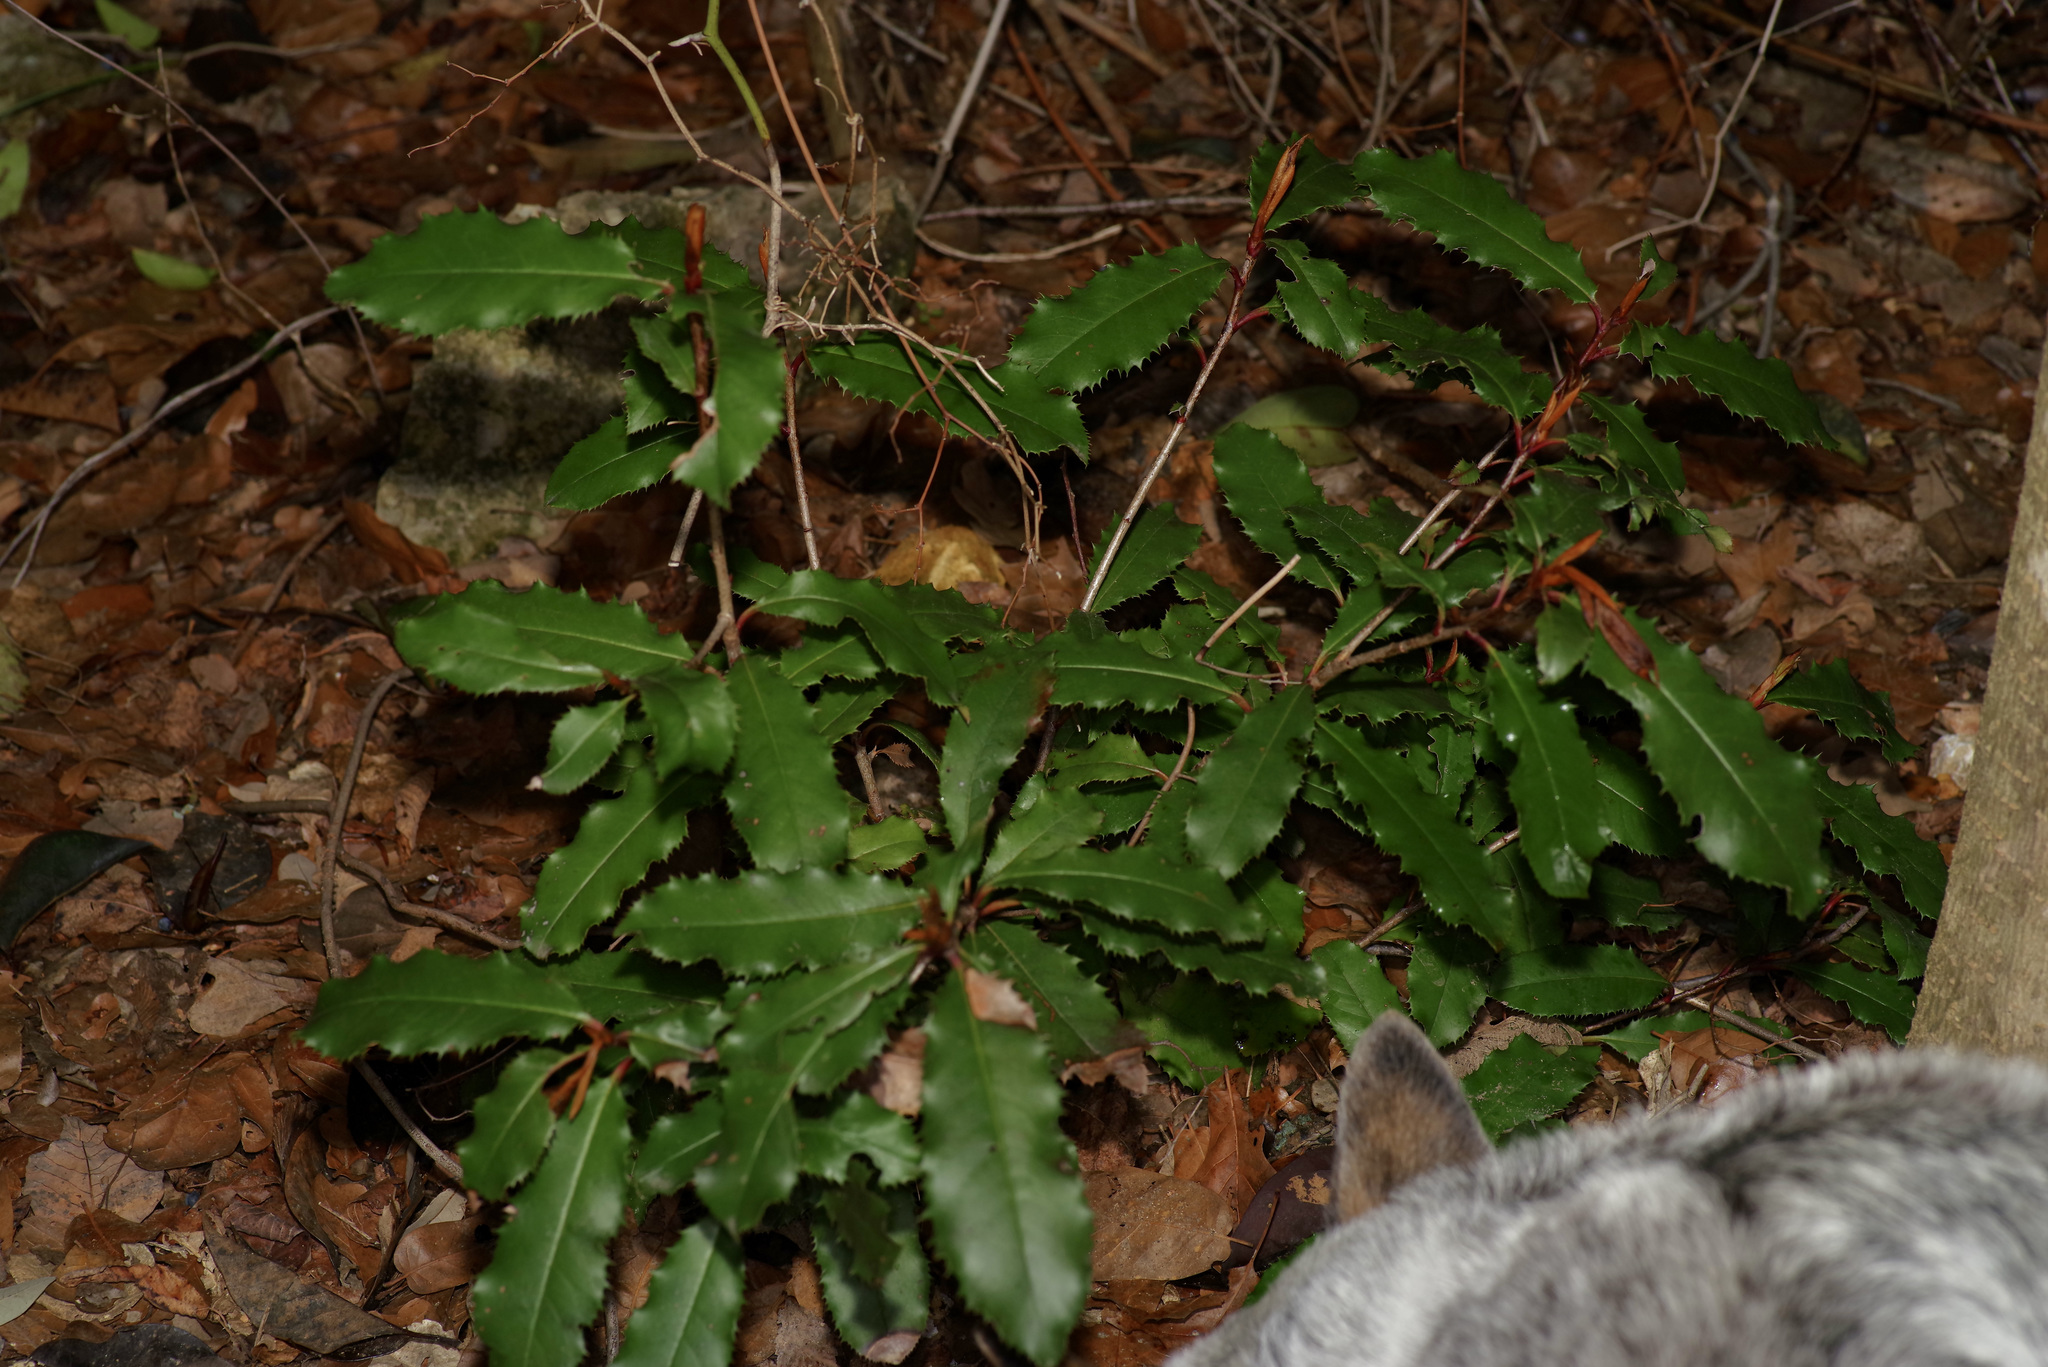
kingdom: Plantae
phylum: Tracheophyta
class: Magnoliopsida
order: Rosales
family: Rosaceae
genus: Photinia
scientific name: Photinia serratifolia
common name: Taiwanese photinia
